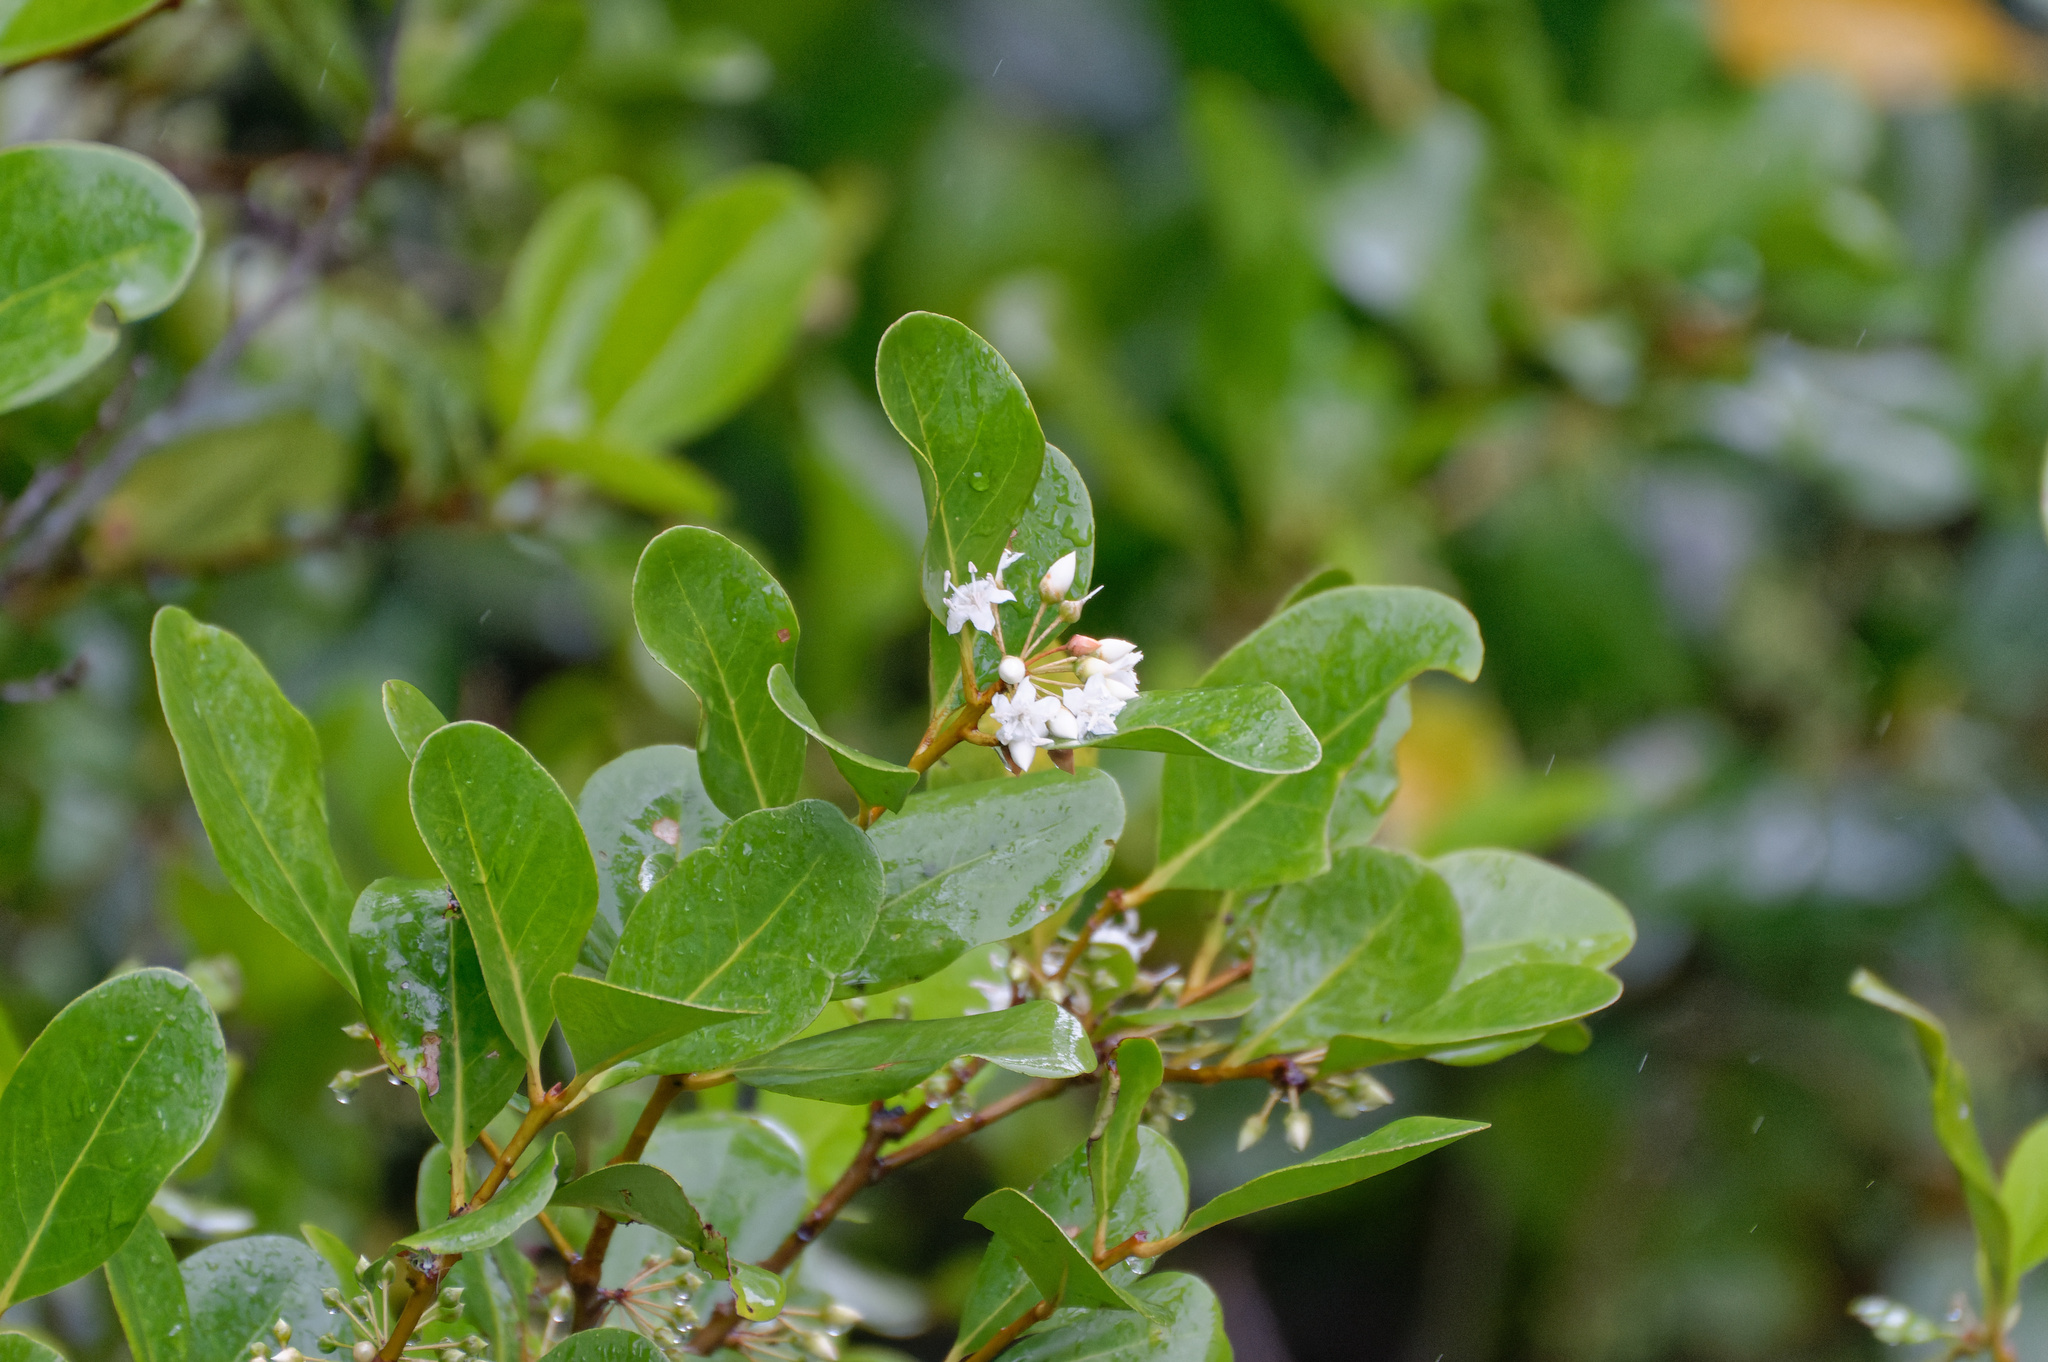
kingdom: Plantae
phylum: Tracheophyta
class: Magnoliopsida
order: Ericales
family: Primulaceae
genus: Aegiceras
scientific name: Aegiceras corniculatum
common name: River mangrove
